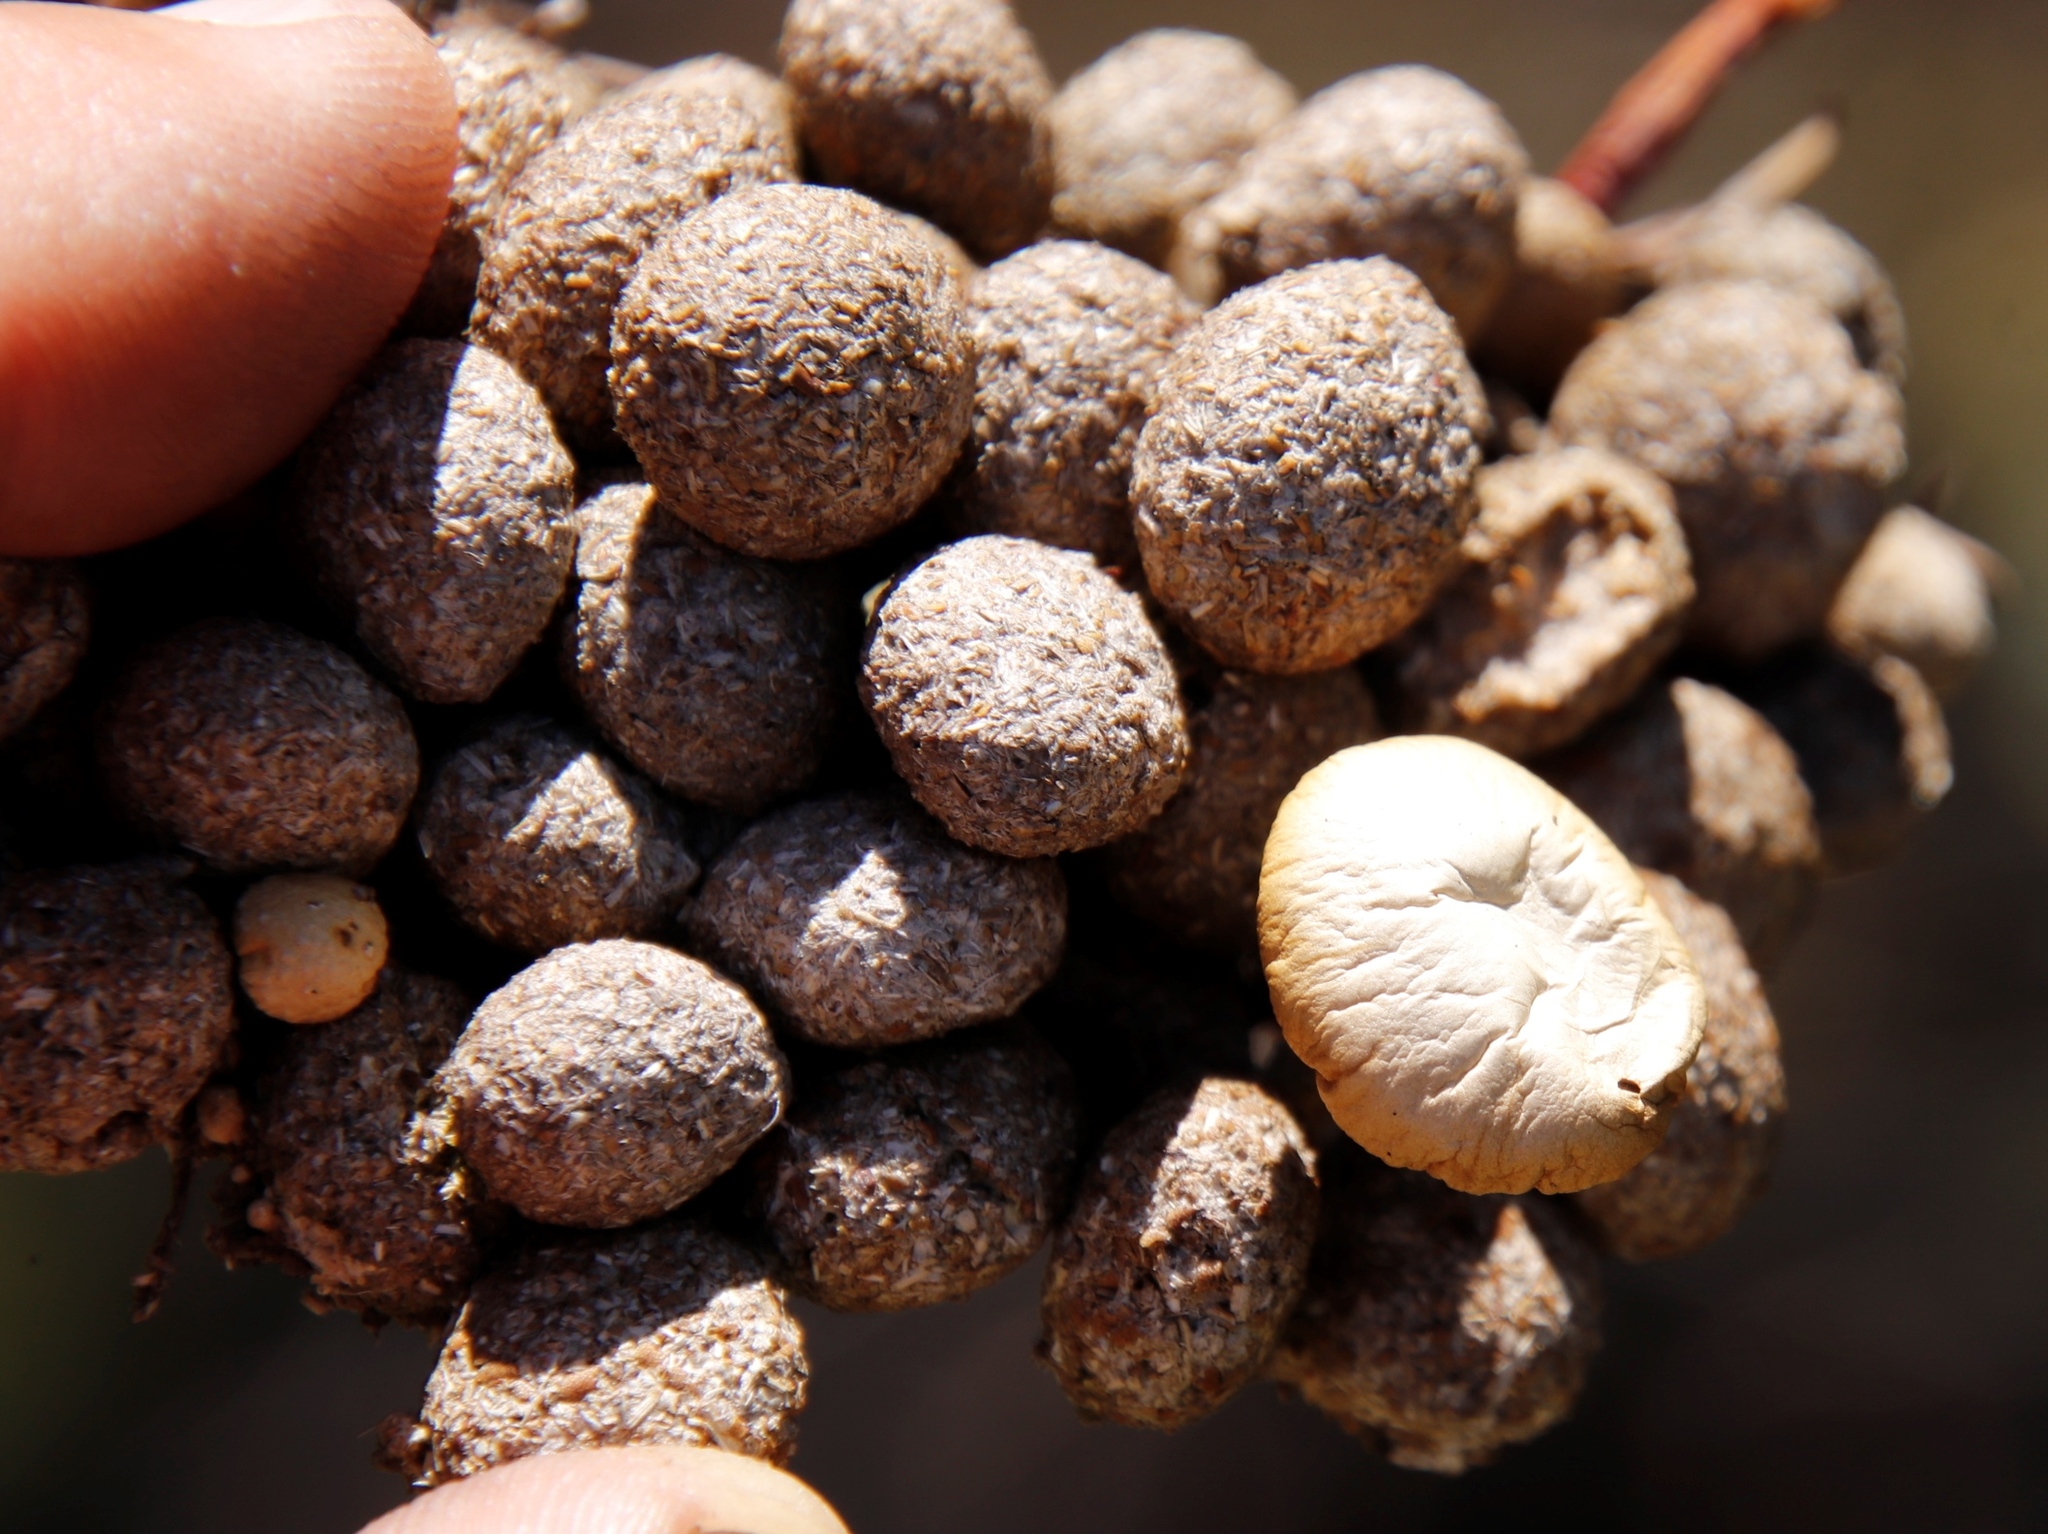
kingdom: Animalia
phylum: Chordata
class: Mammalia
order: Lagomorpha
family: Leporidae
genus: Pronolagus
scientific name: Pronolagus saundersiae
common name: Hewitt's red rock hare
